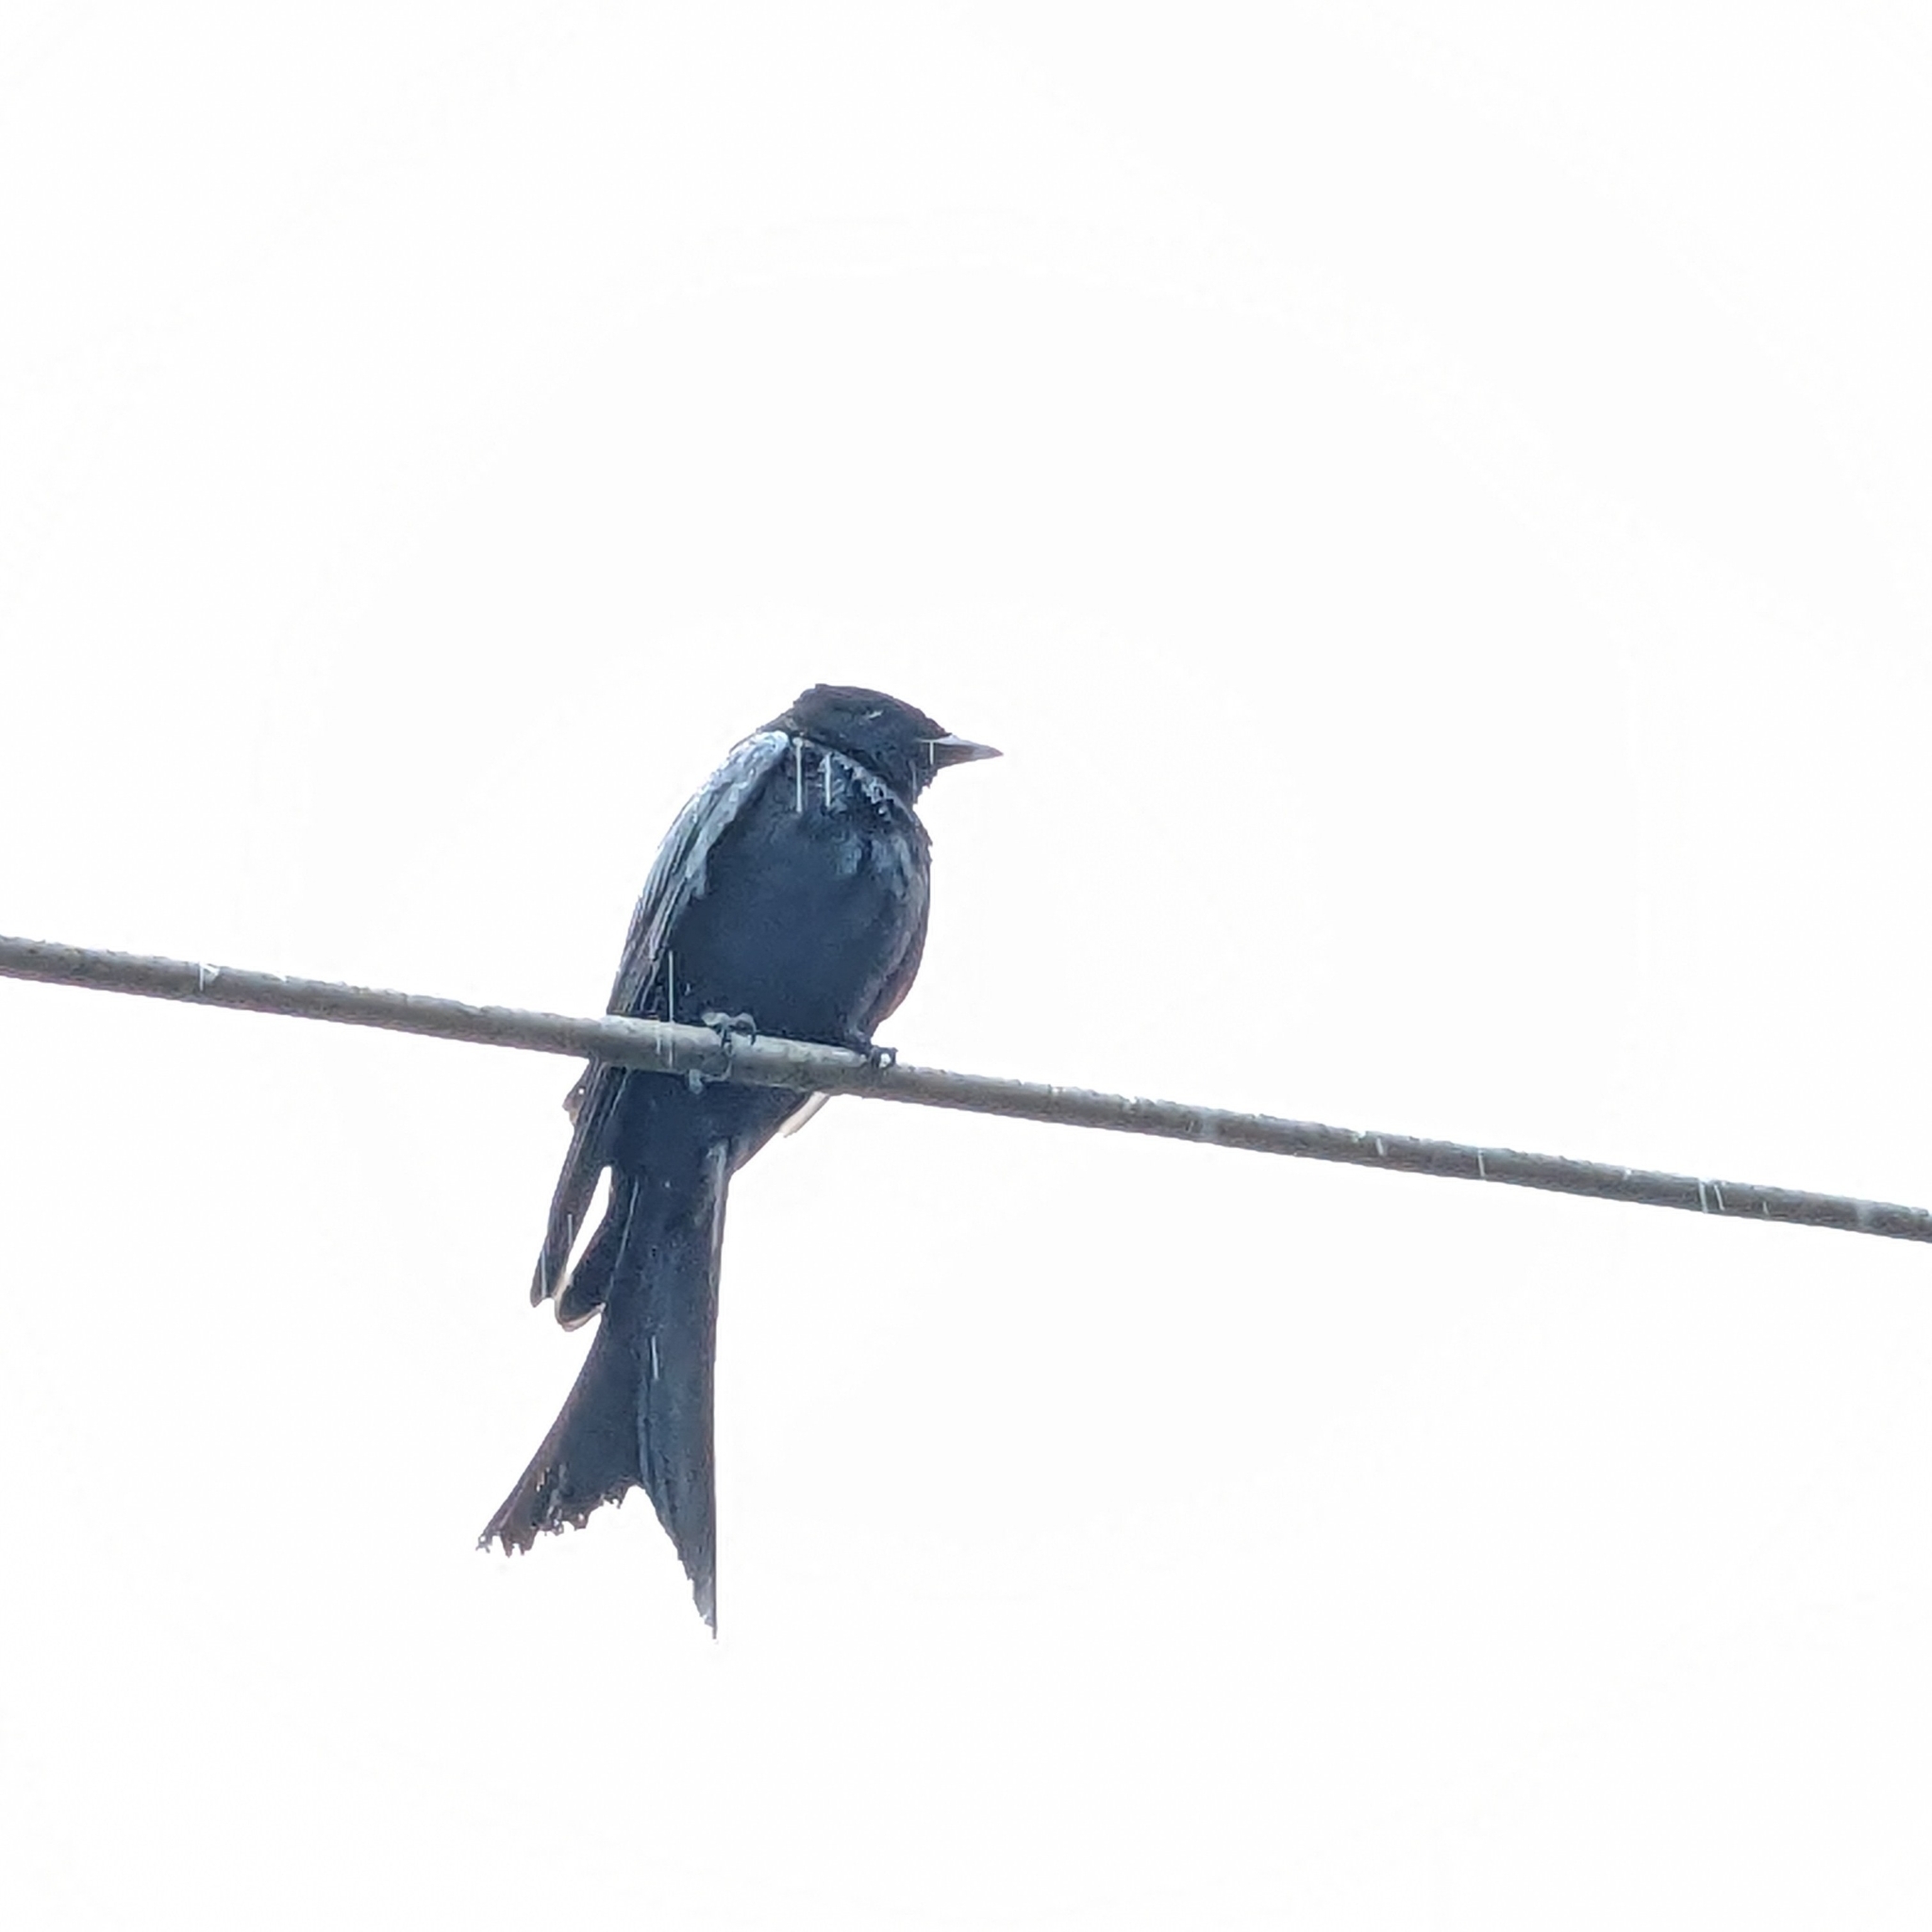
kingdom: Animalia
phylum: Chordata
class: Aves
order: Passeriformes
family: Dicruridae
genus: Dicrurus
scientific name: Dicrurus macrocercus
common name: Black drongo
